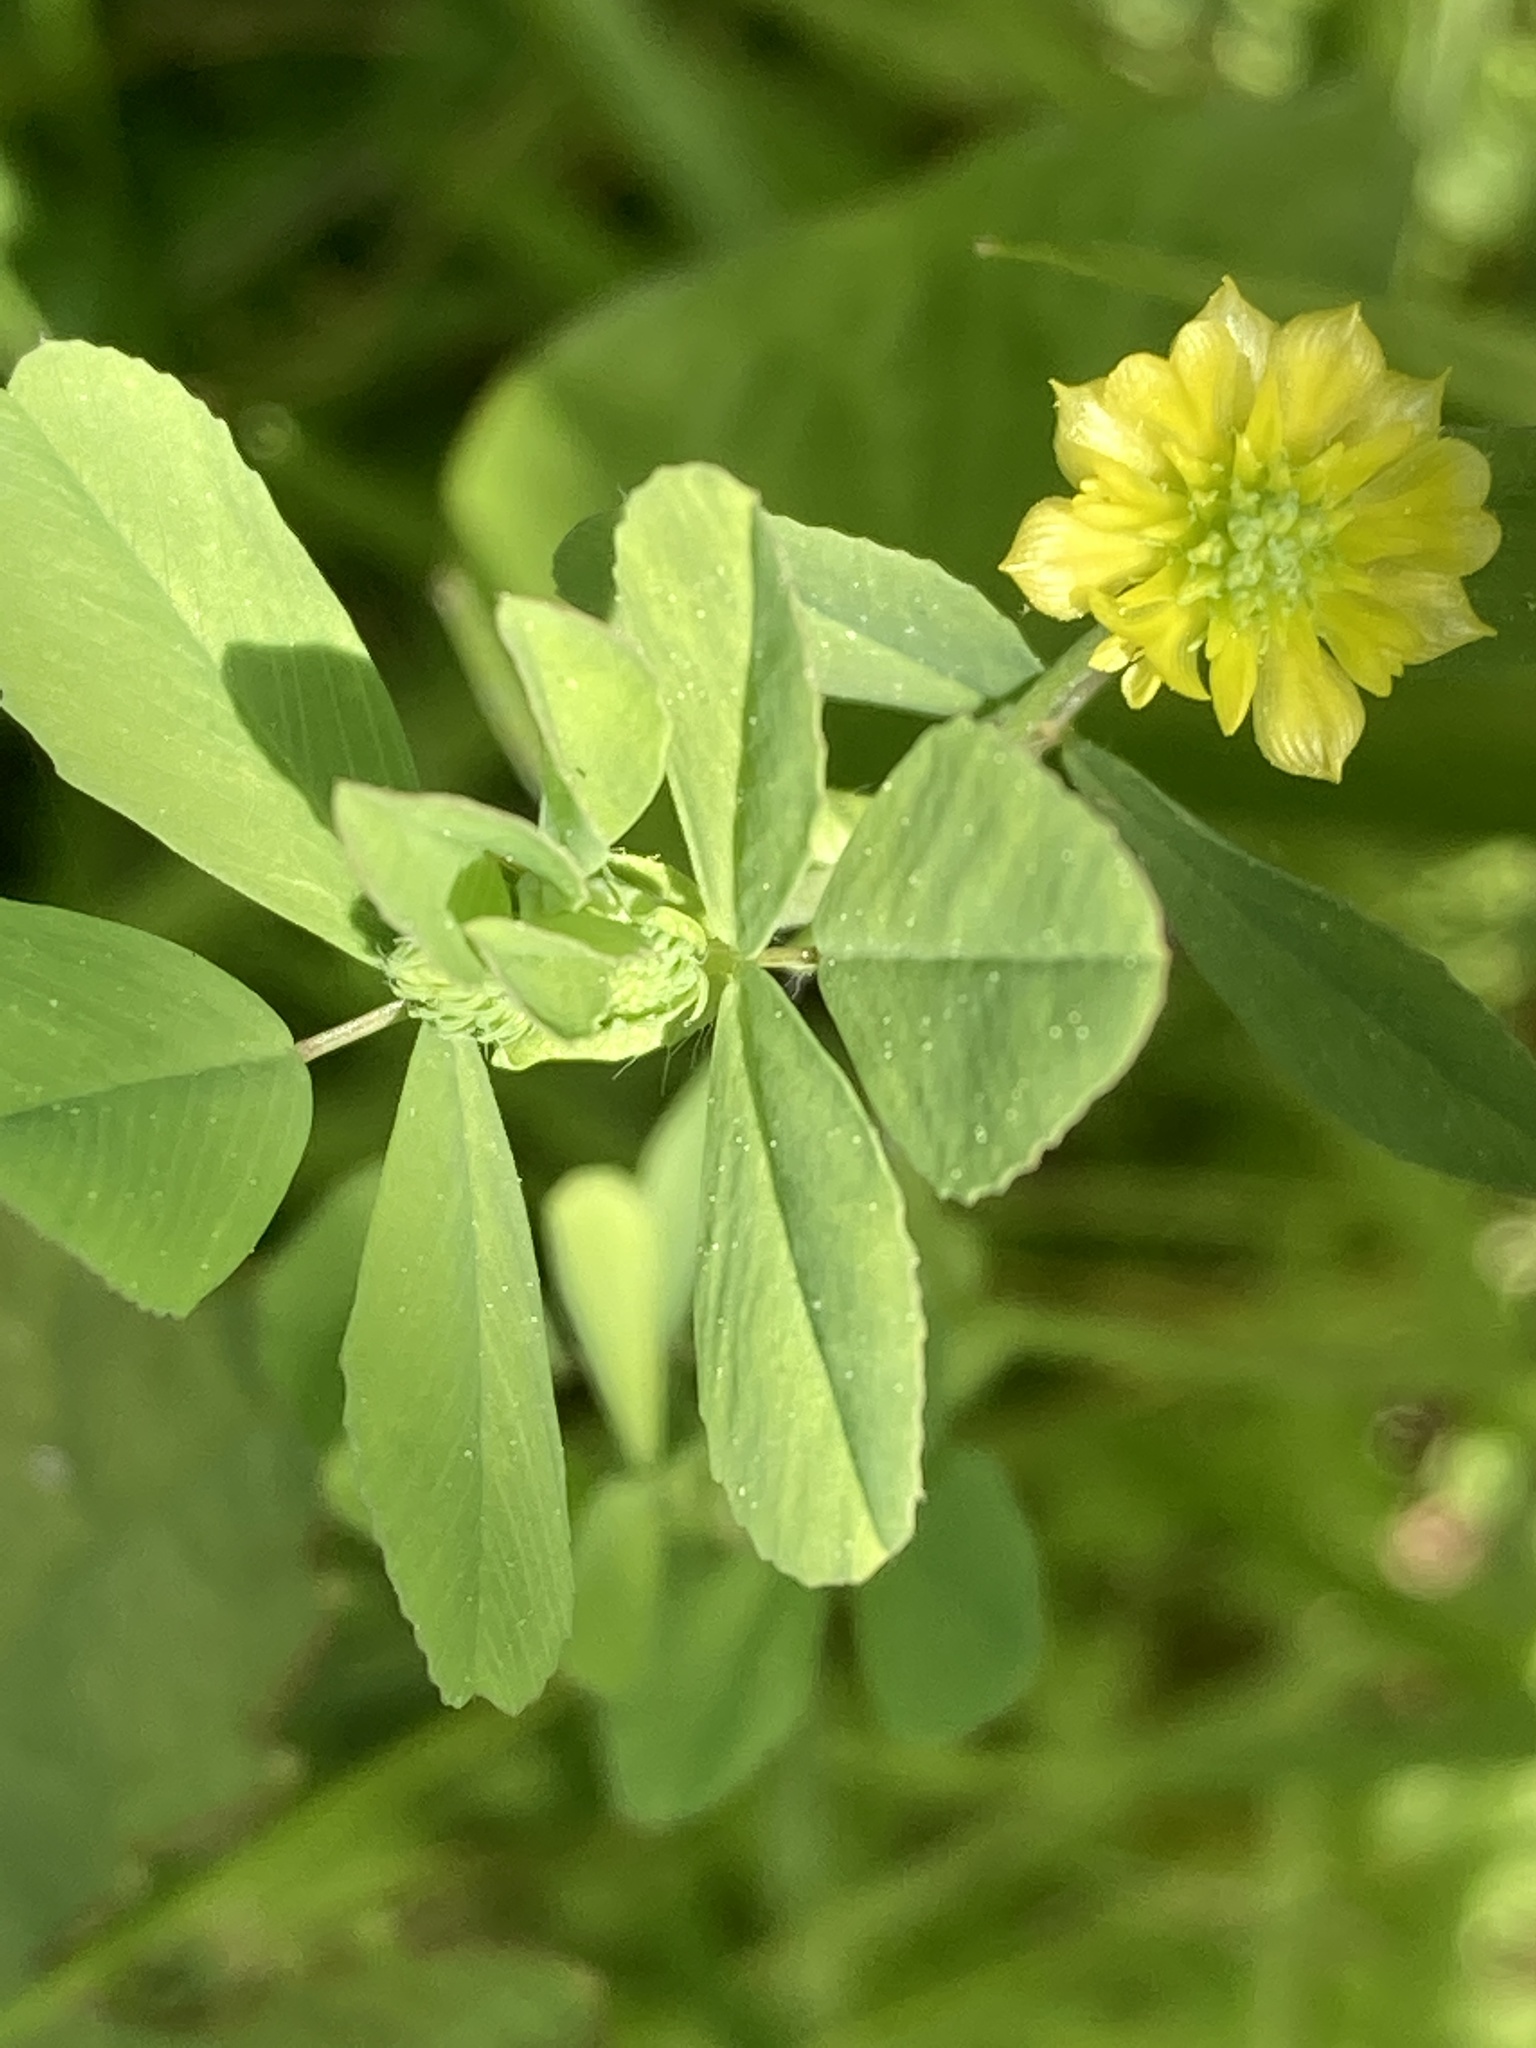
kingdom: Plantae
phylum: Tracheophyta
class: Magnoliopsida
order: Fabales
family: Fabaceae
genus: Trifolium
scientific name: Trifolium campestre
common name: Field clover
